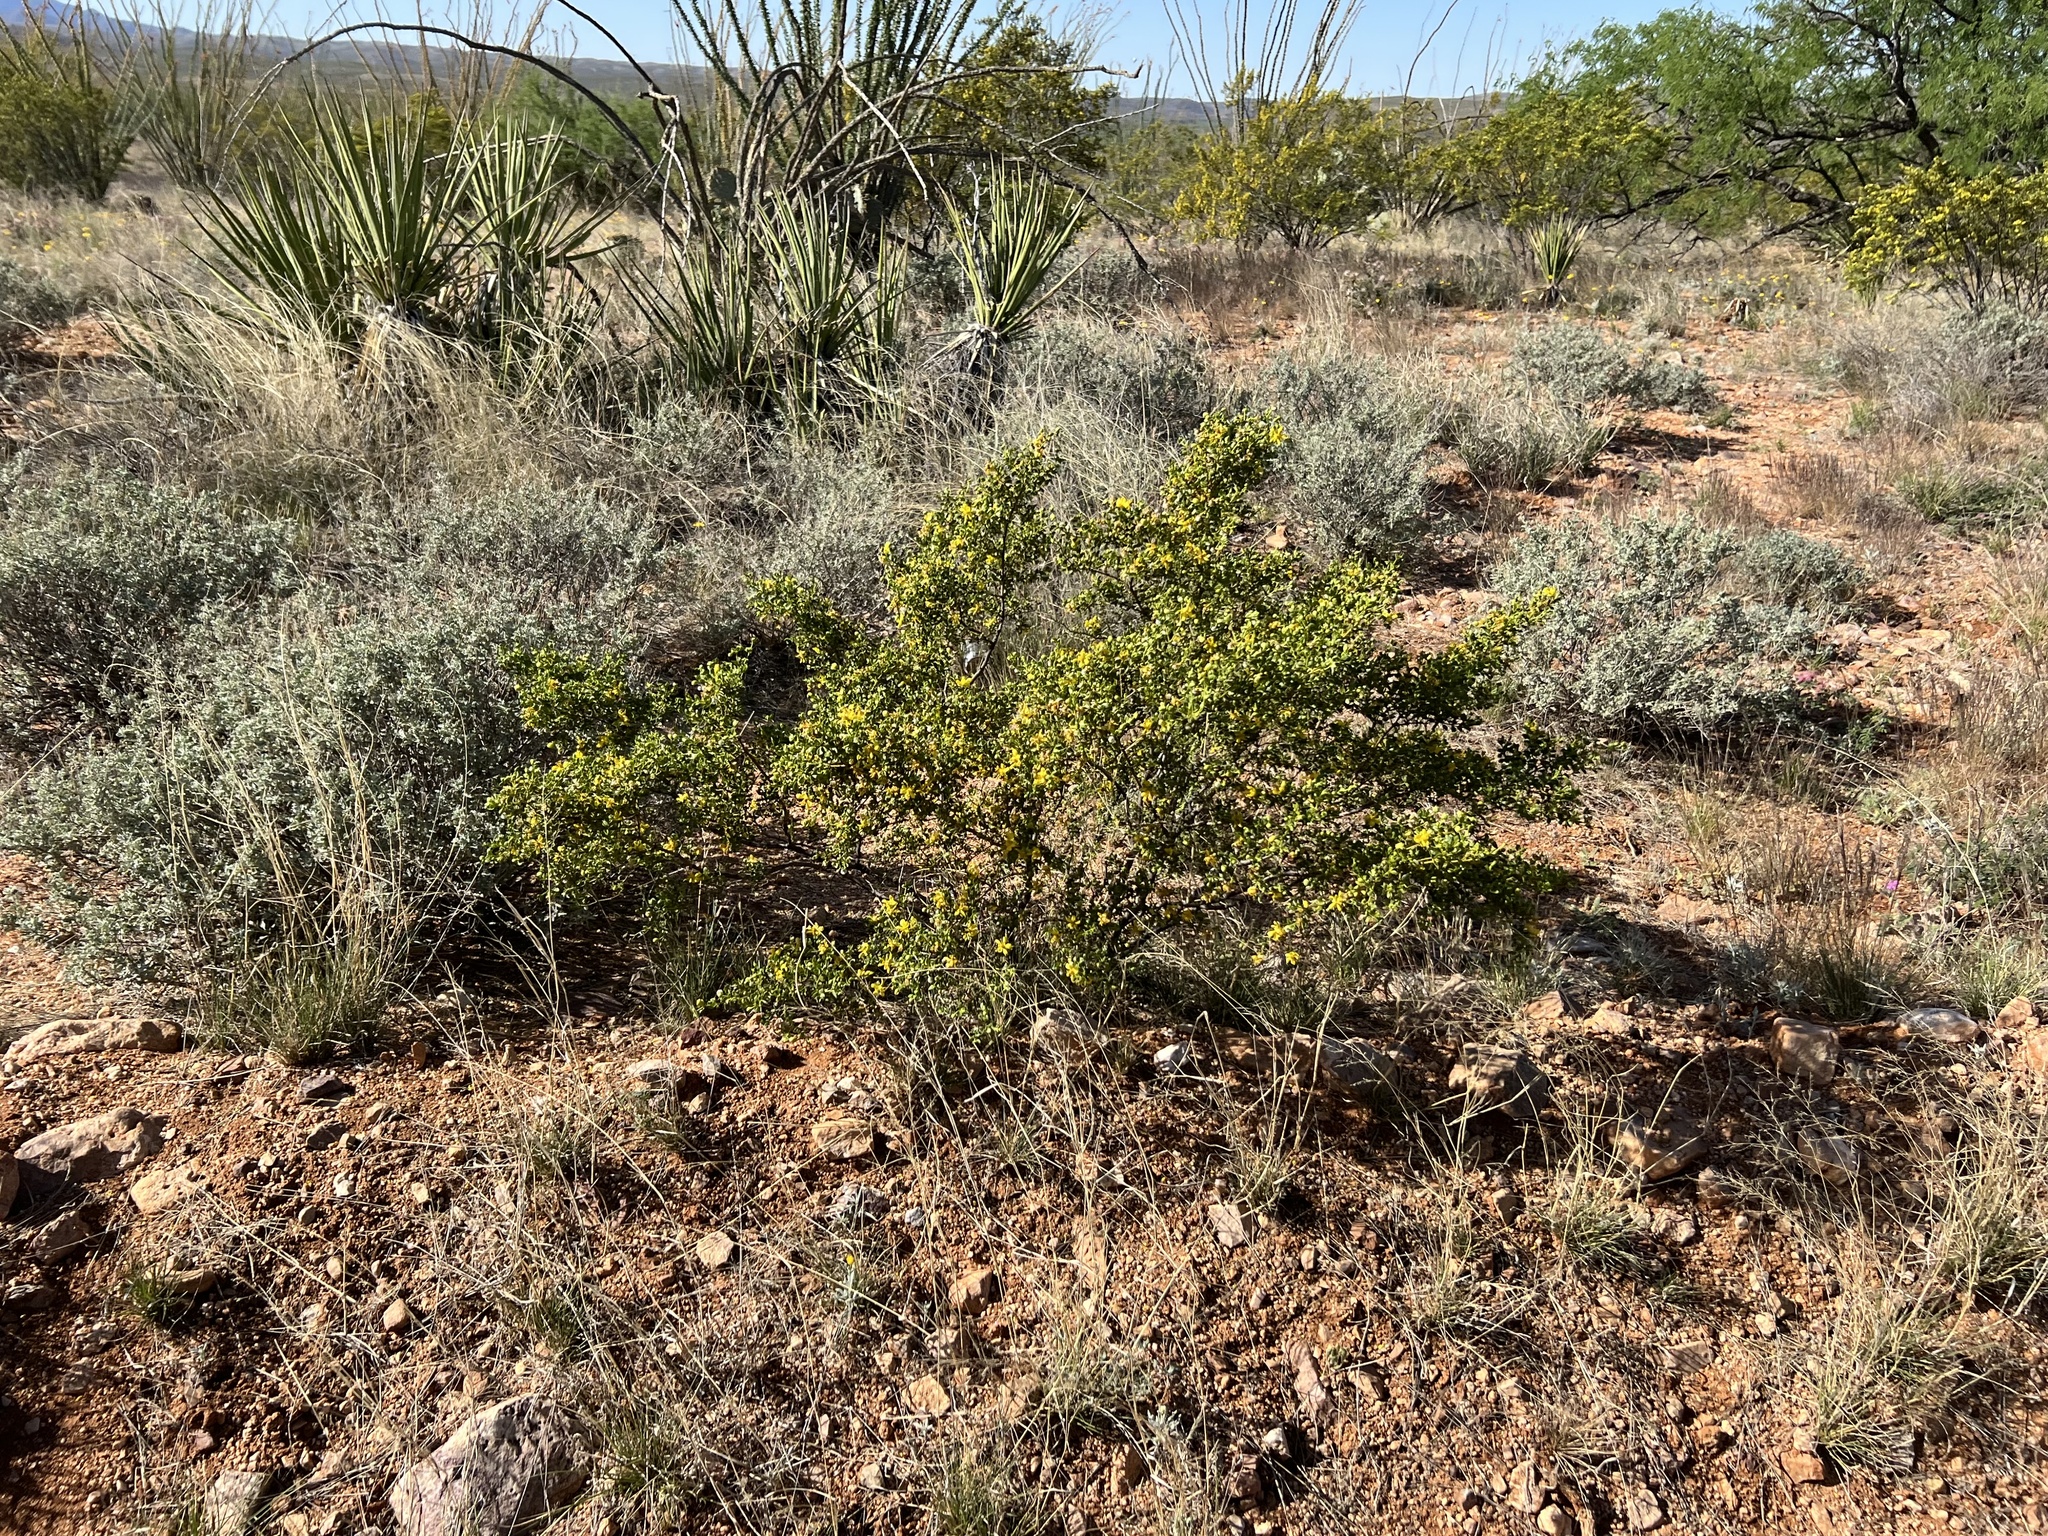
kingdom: Plantae
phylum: Tracheophyta
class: Magnoliopsida
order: Zygophyllales
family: Zygophyllaceae
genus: Larrea
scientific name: Larrea tridentata
